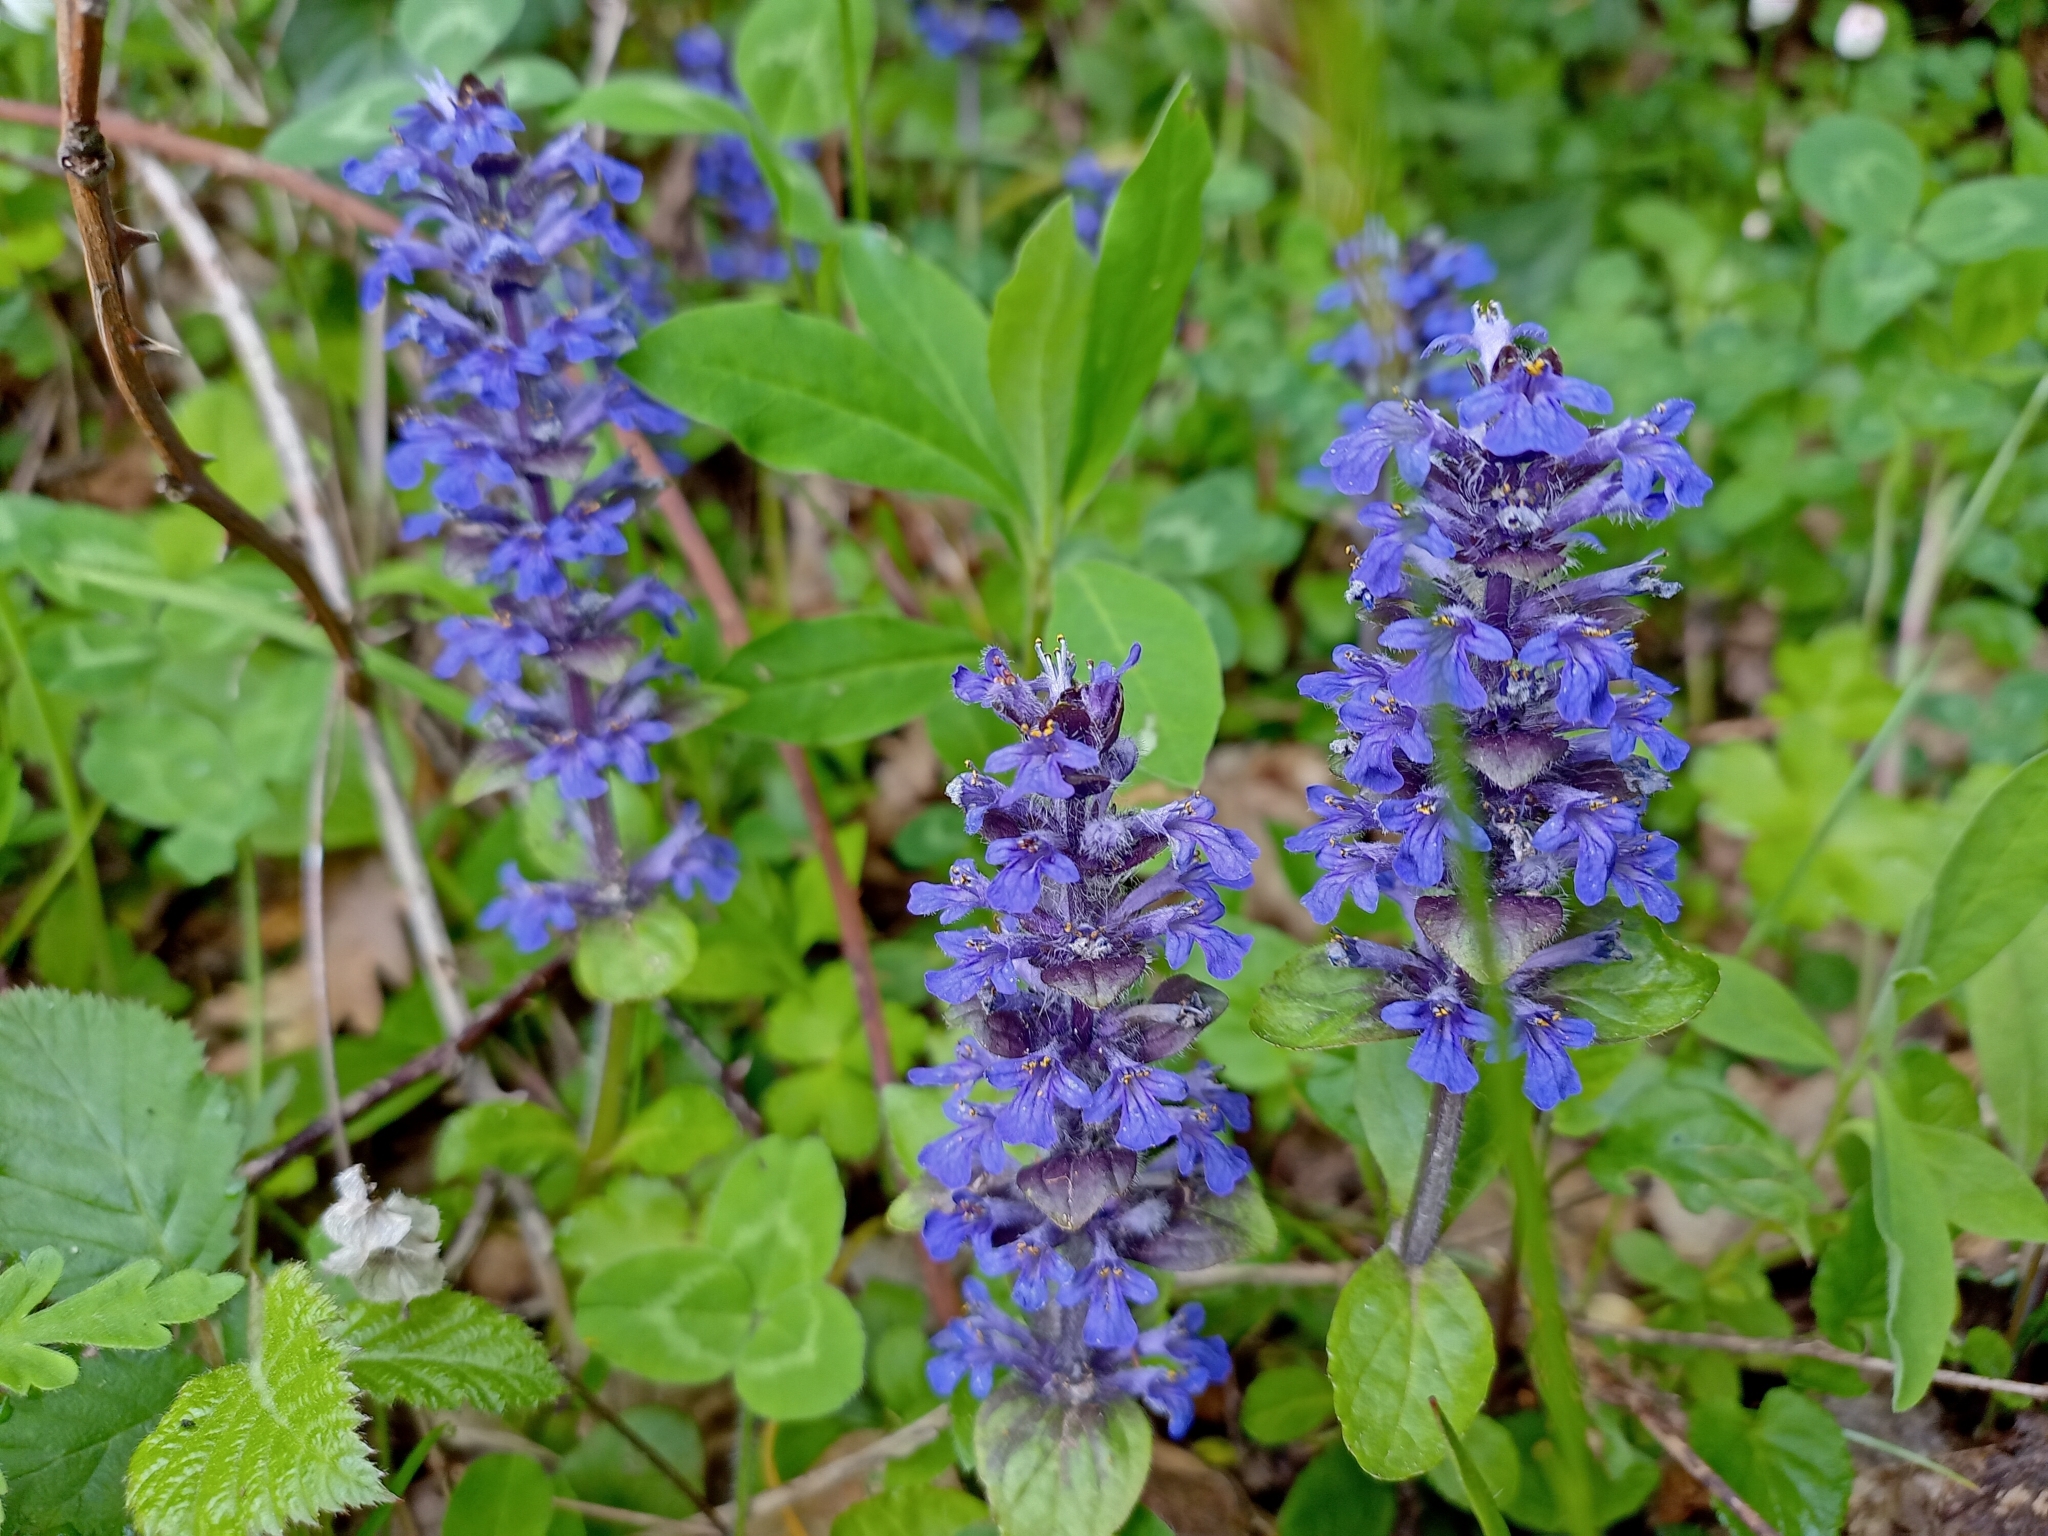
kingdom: Plantae
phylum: Tracheophyta
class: Magnoliopsida
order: Lamiales
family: Lamiaceae
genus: Ajuga
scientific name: Ajuga genevensis
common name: Blue bugle
